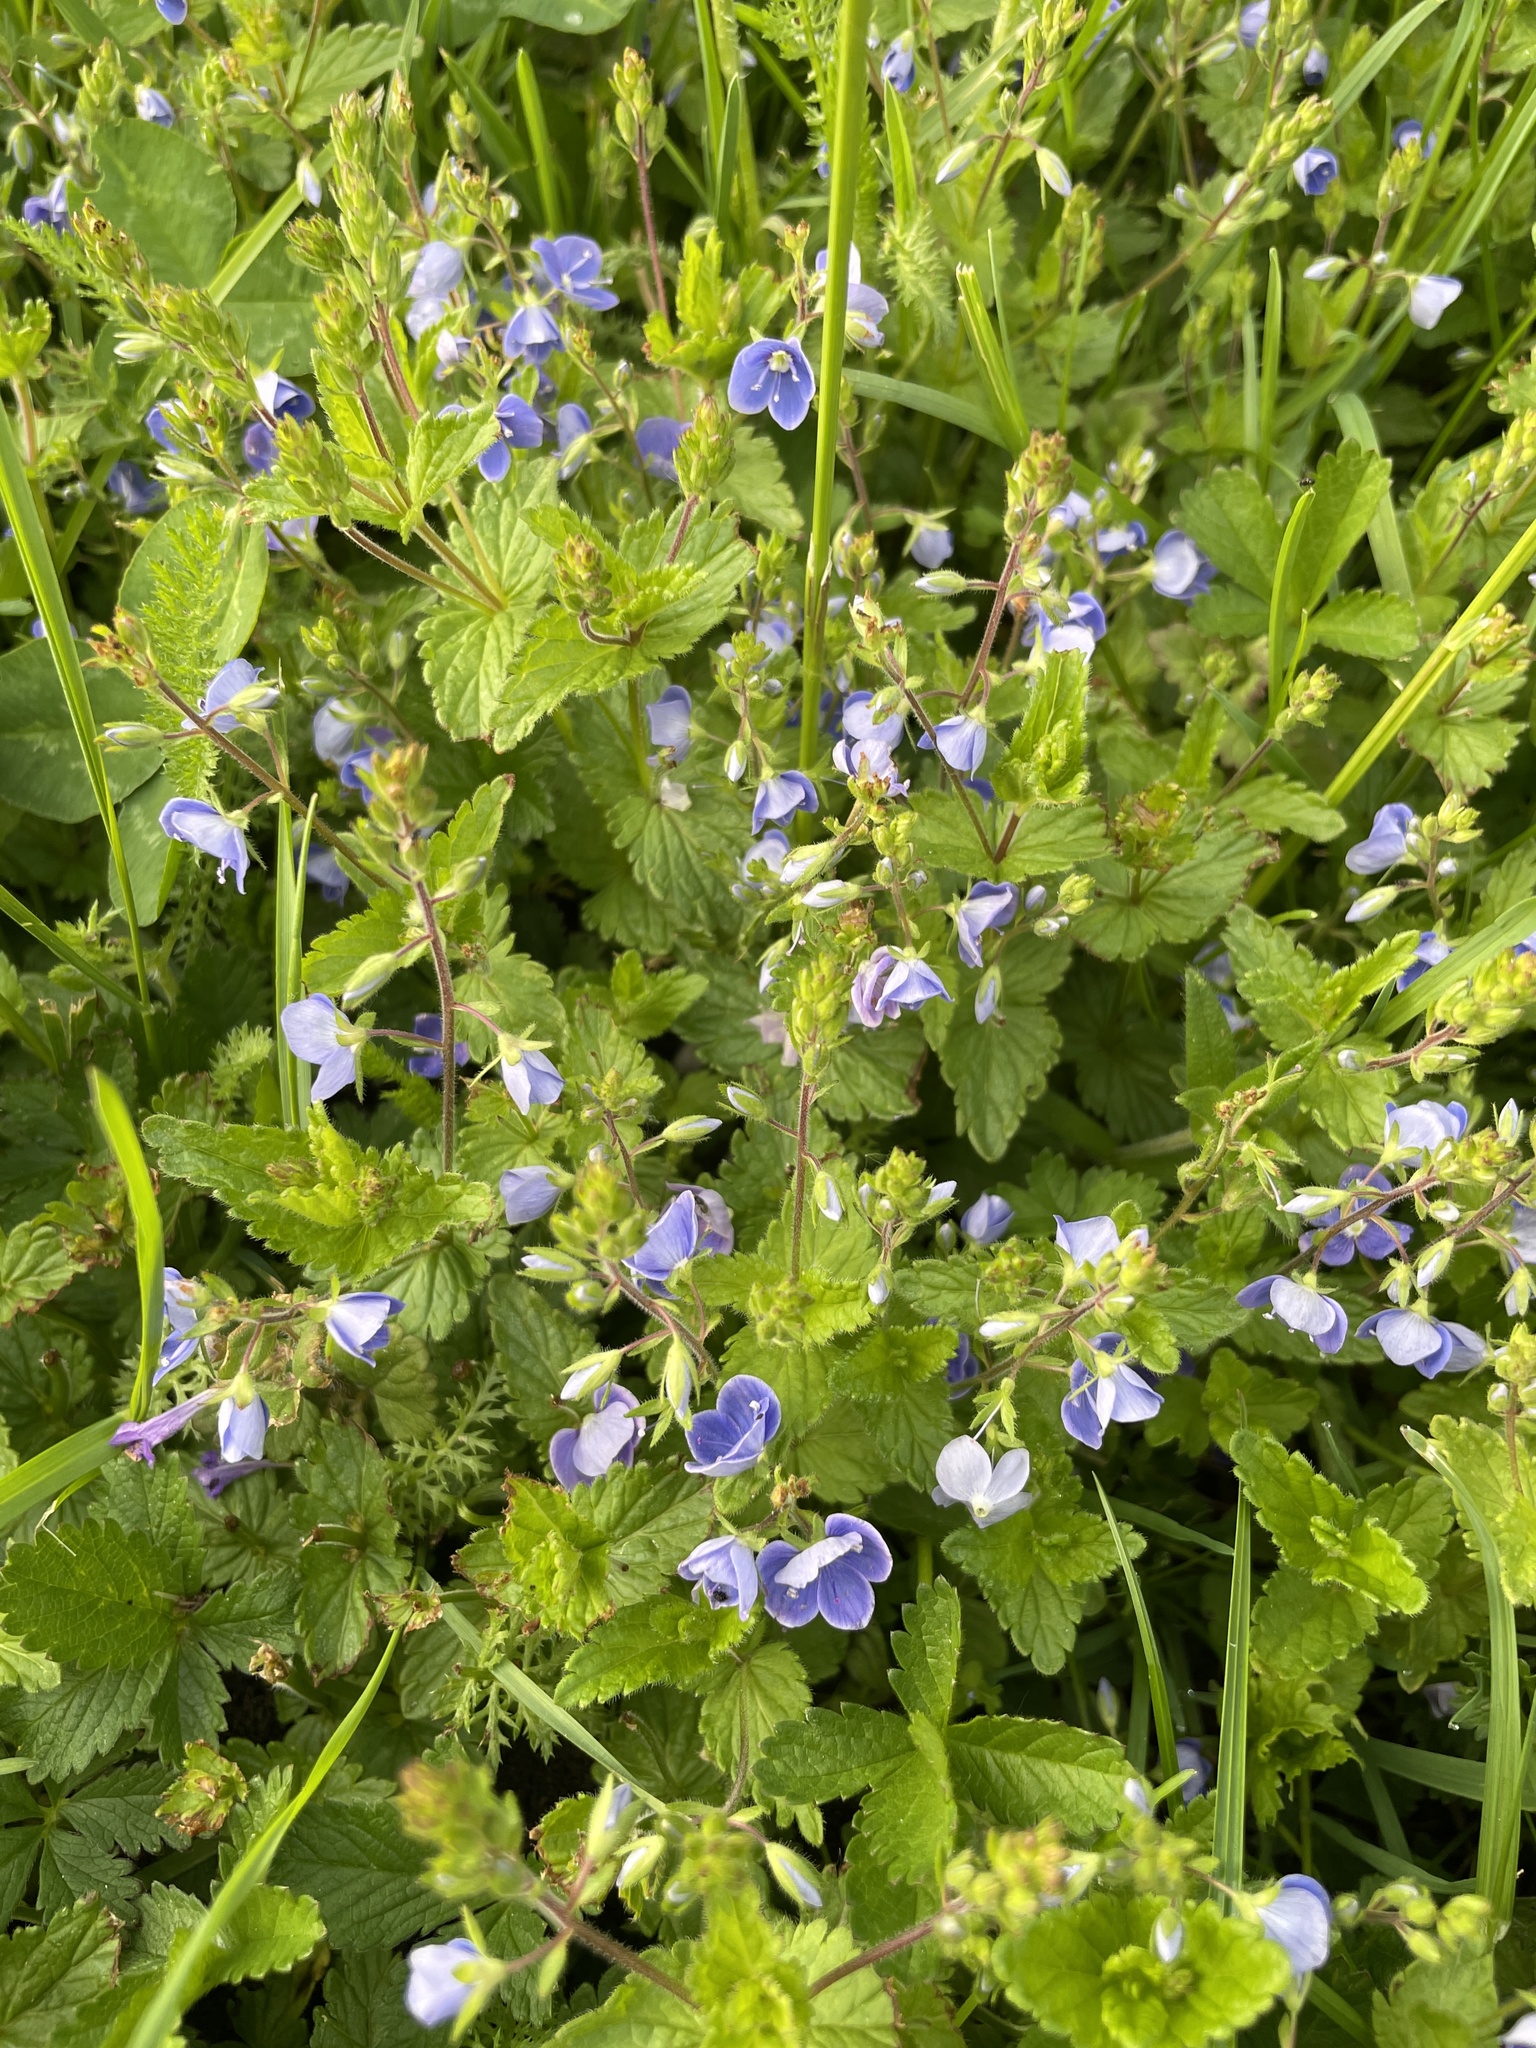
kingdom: Plantae
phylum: Tracheophyta
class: Magnoliopsida
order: Lamiales
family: Plantaginaceae
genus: Veronica
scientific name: Veronica chamaedrys
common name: Germander speedwell
